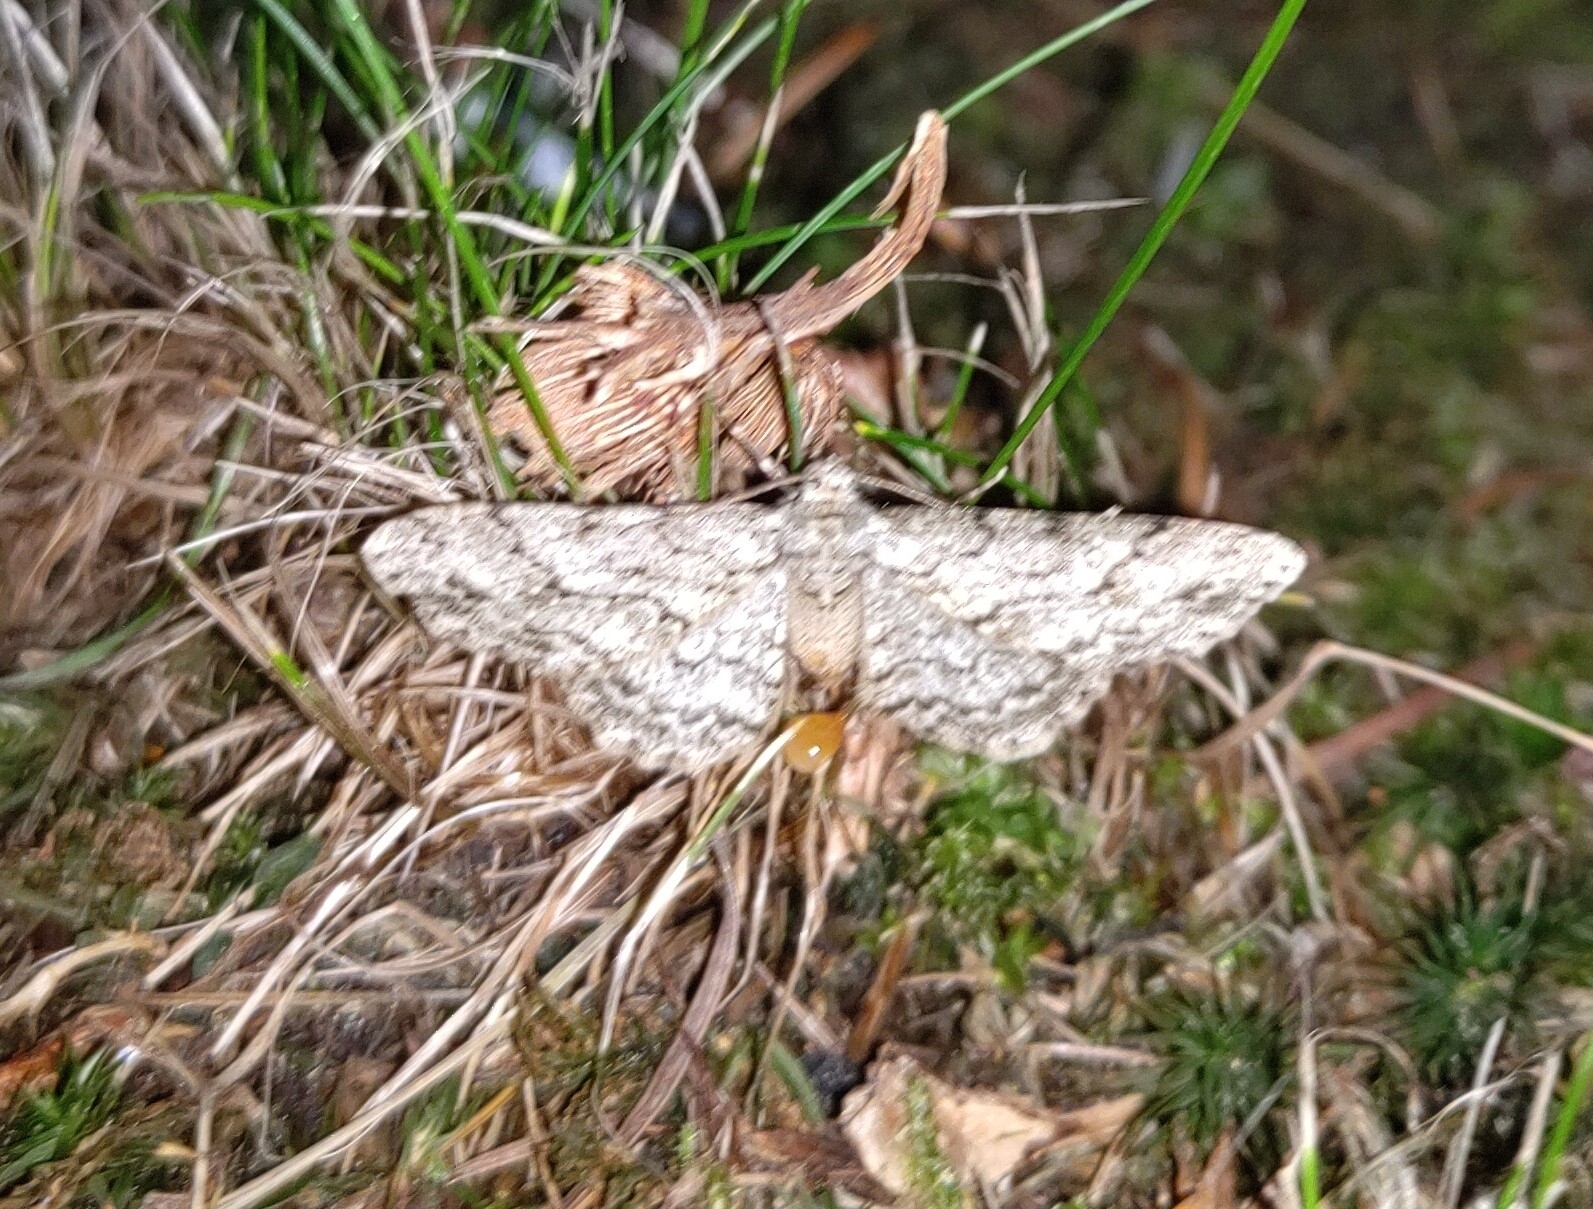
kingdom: Animalia
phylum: Arthropoda
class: Insecta
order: Lepidoptera
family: Geometridae
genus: Ectropis
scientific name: Ectropis crepuscularia
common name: Engrailed
